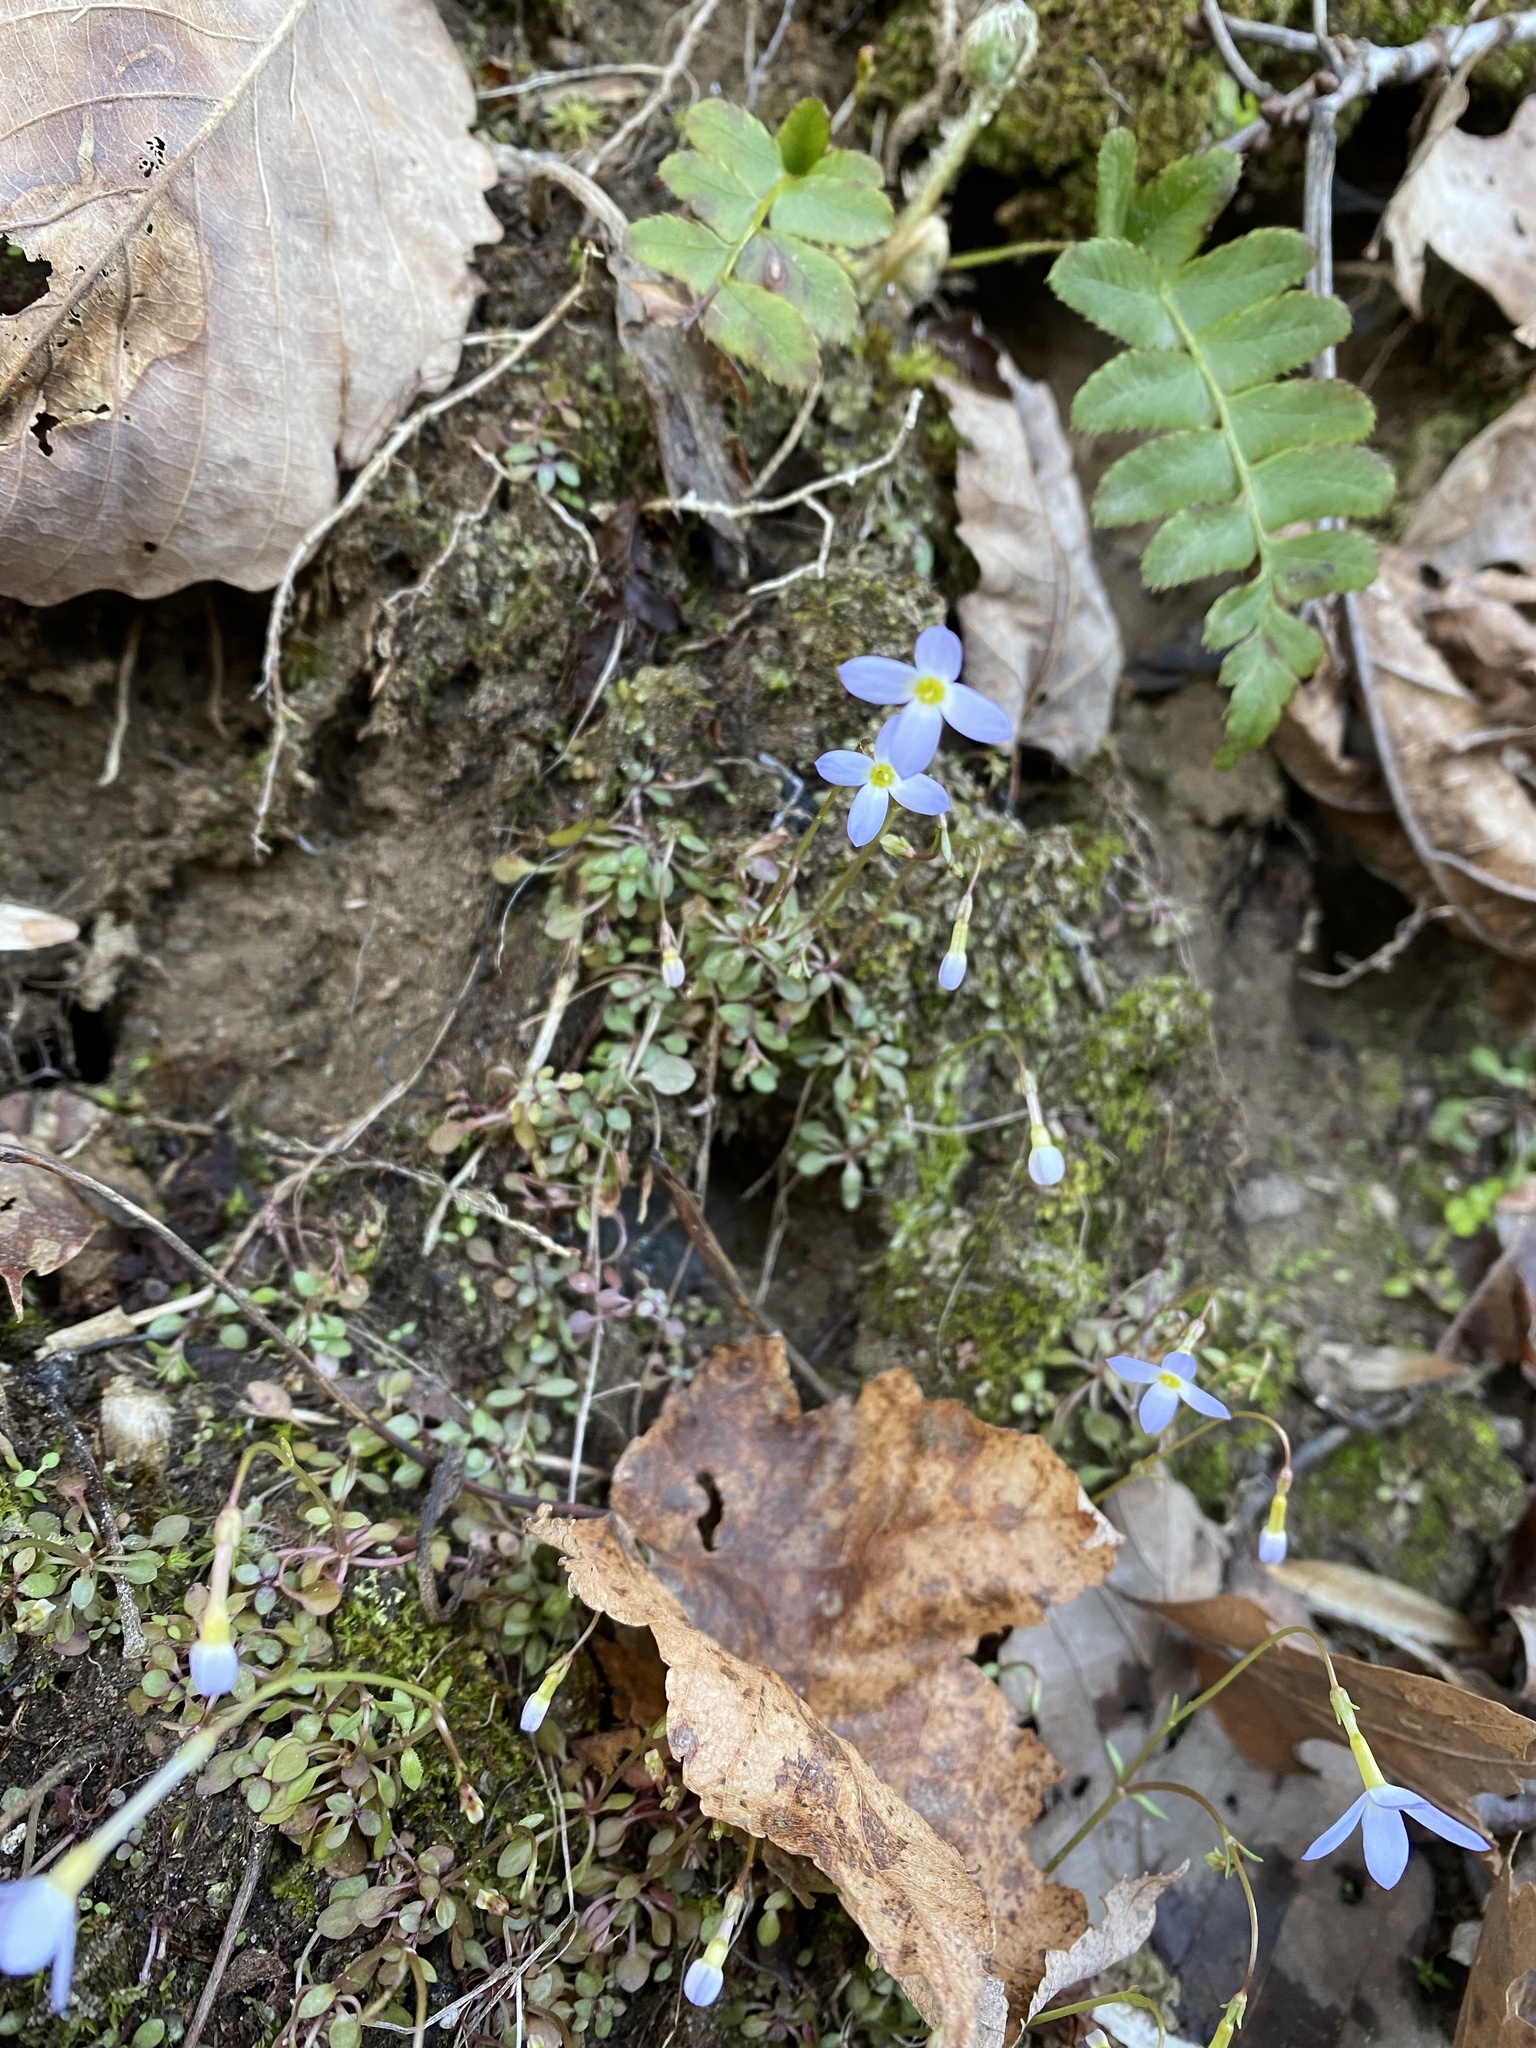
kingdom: Plantae
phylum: Tracheophyta
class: Magnoliopsida
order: Gentianales
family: Rubiaceae
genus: Houstonia
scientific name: Houstonia caerulea
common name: Bluets
